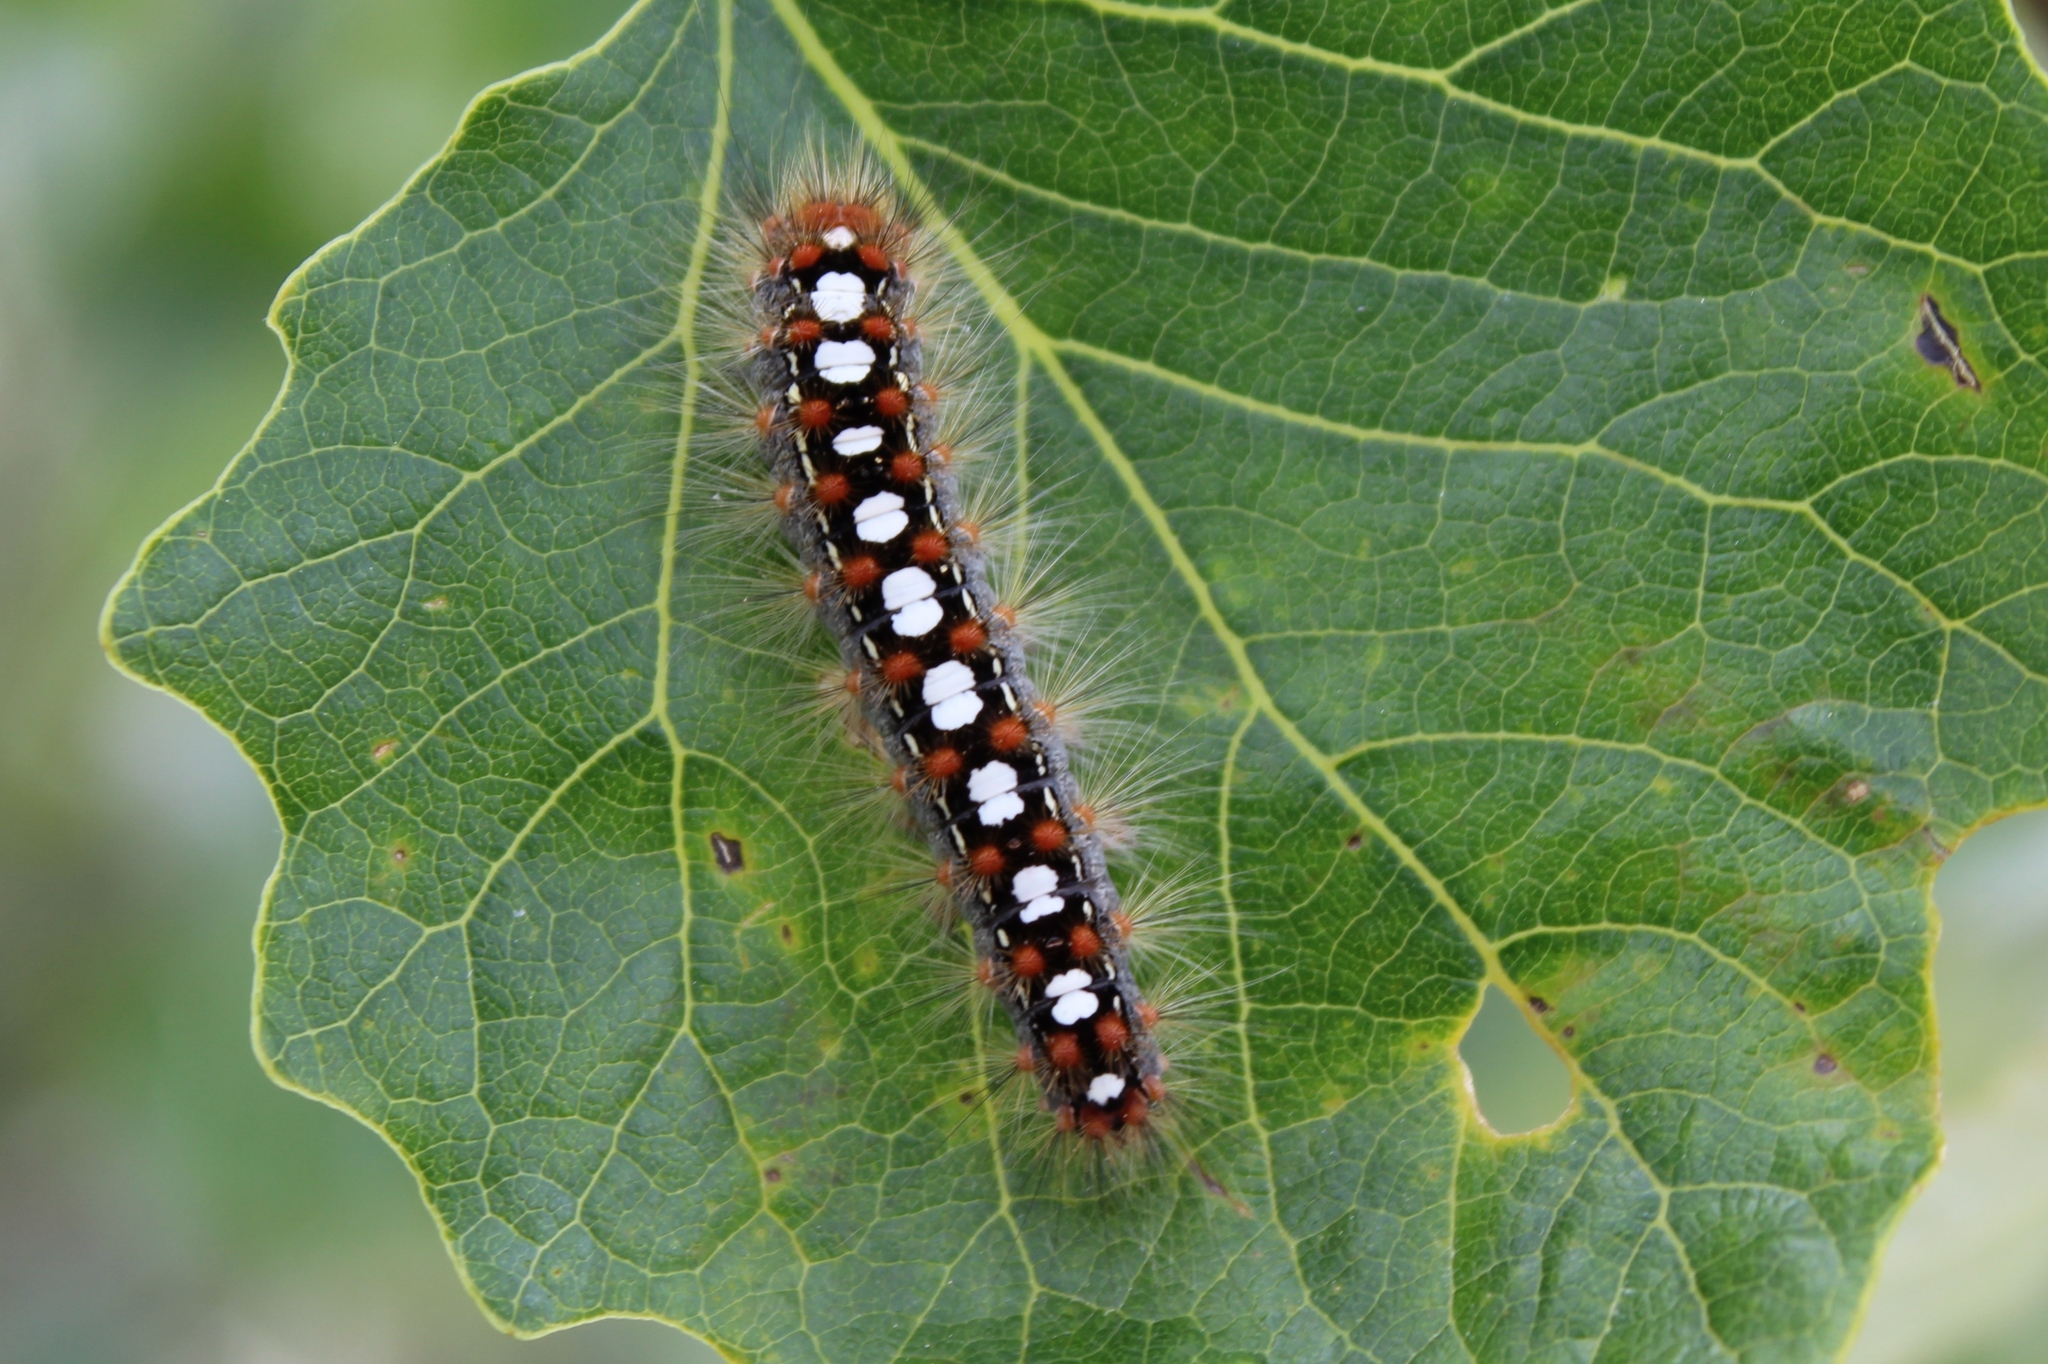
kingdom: Animalia
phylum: Arthropoda
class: Insecta
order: Lepidoptera
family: Erebidae
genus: Leucoma
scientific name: Leucoma salicis
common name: White satin moth
